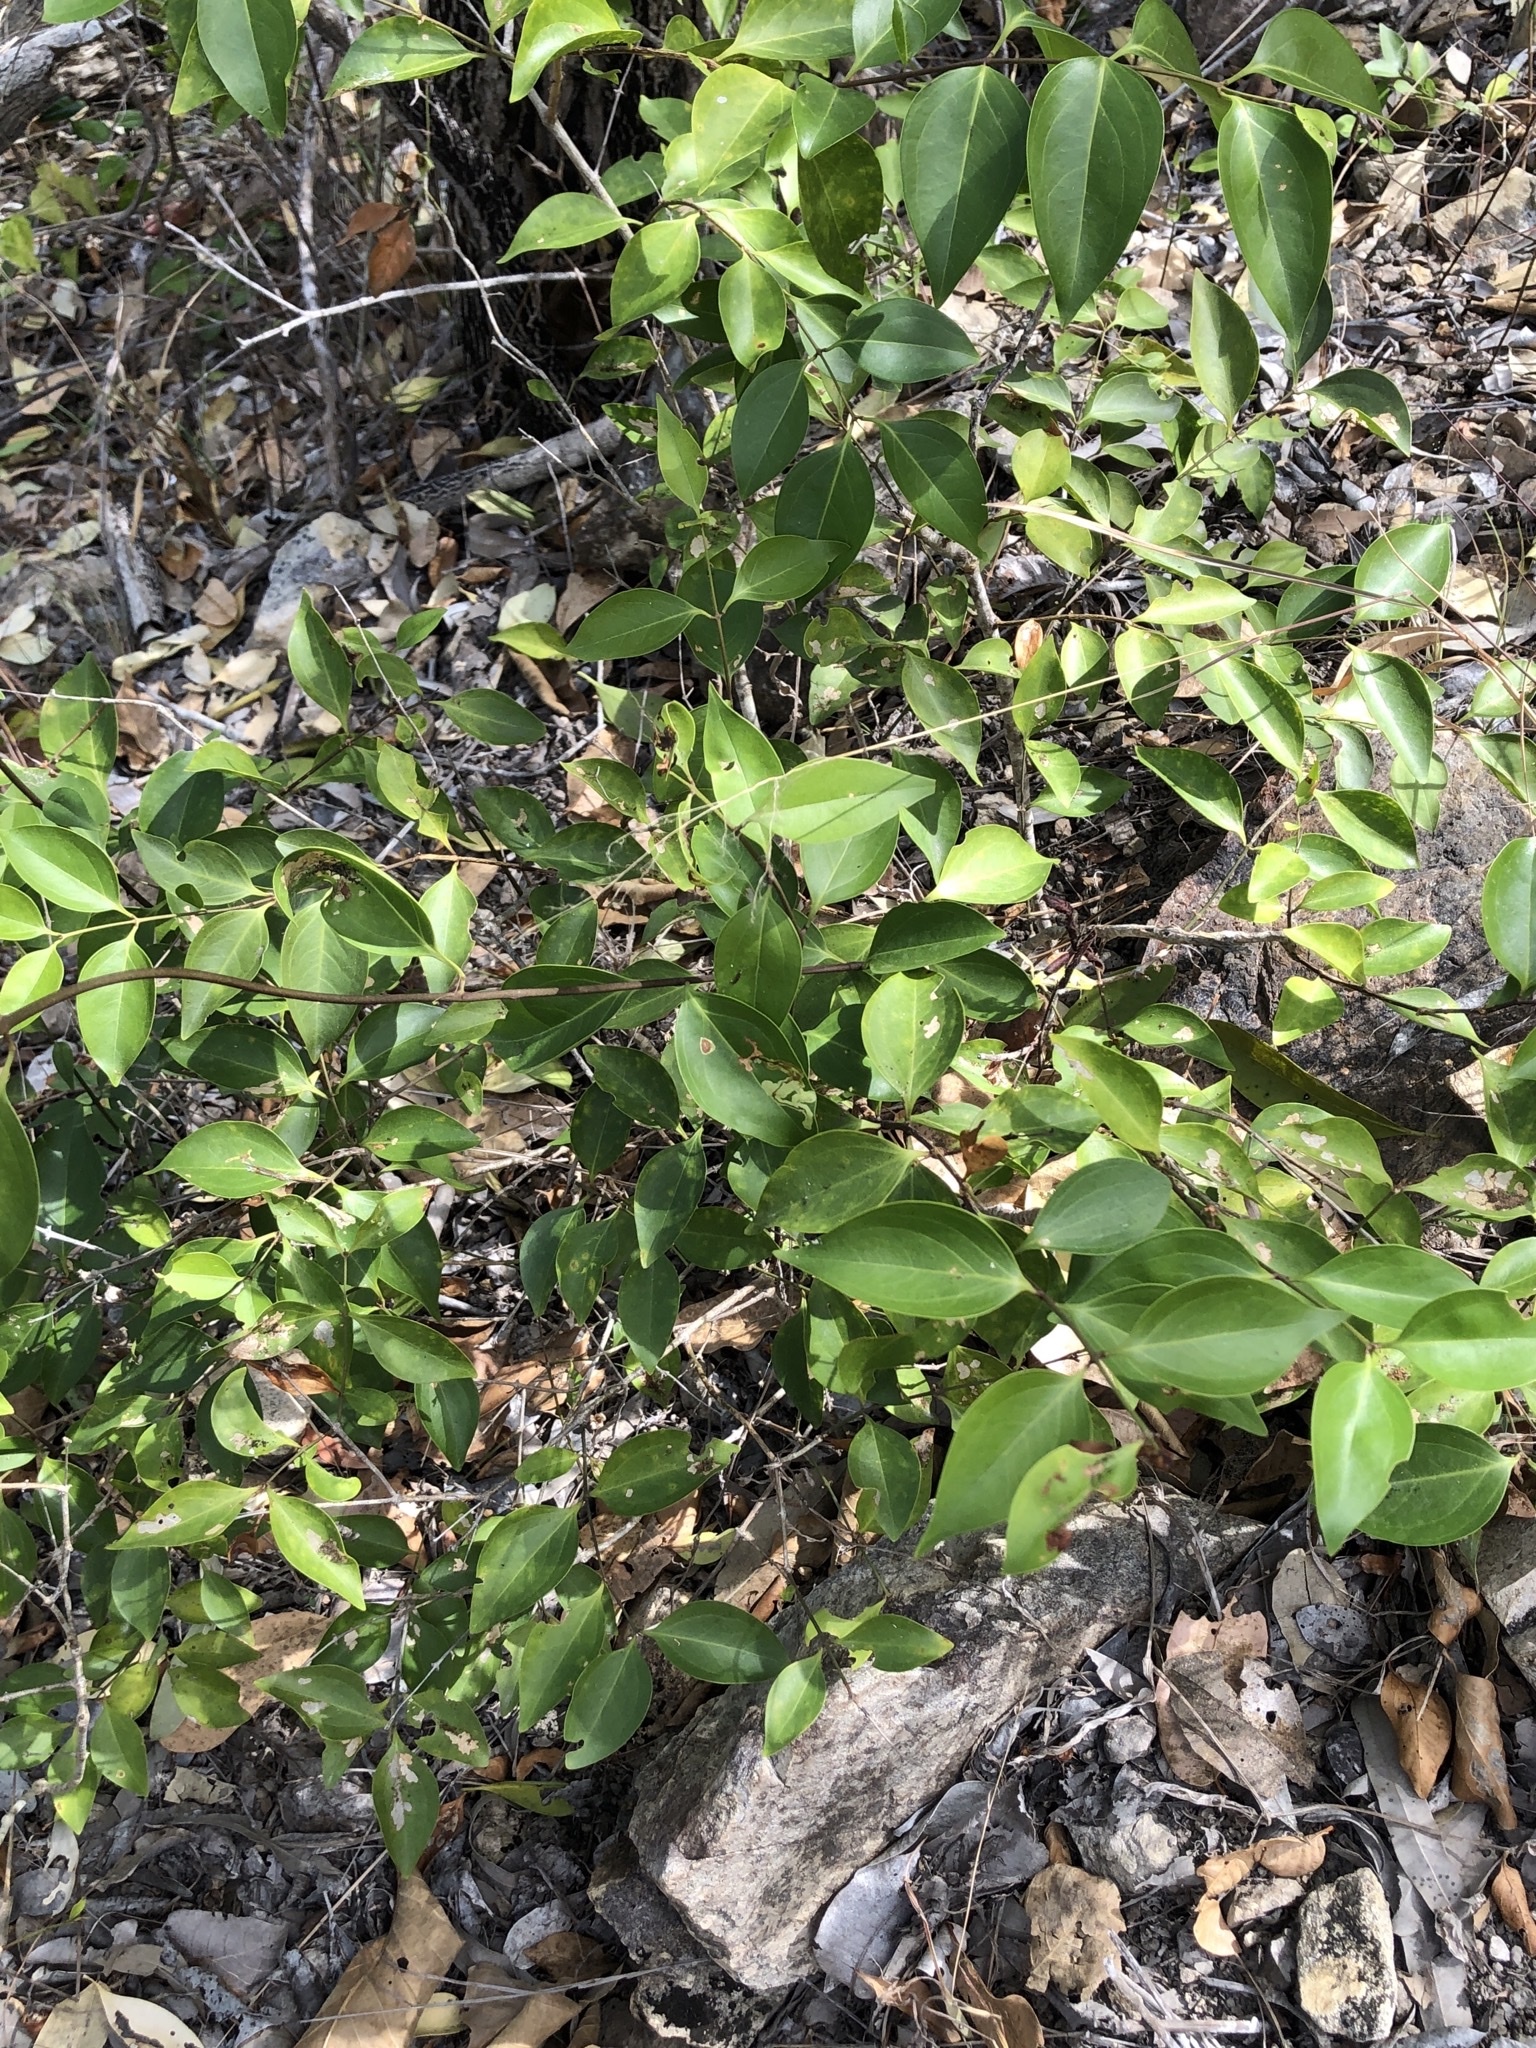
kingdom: Plantae
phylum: Tracheophyta
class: Magnoliopsida
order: Lamiales
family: Oleaceae
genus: Jasminum
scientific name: Jasminum simplicifolium
